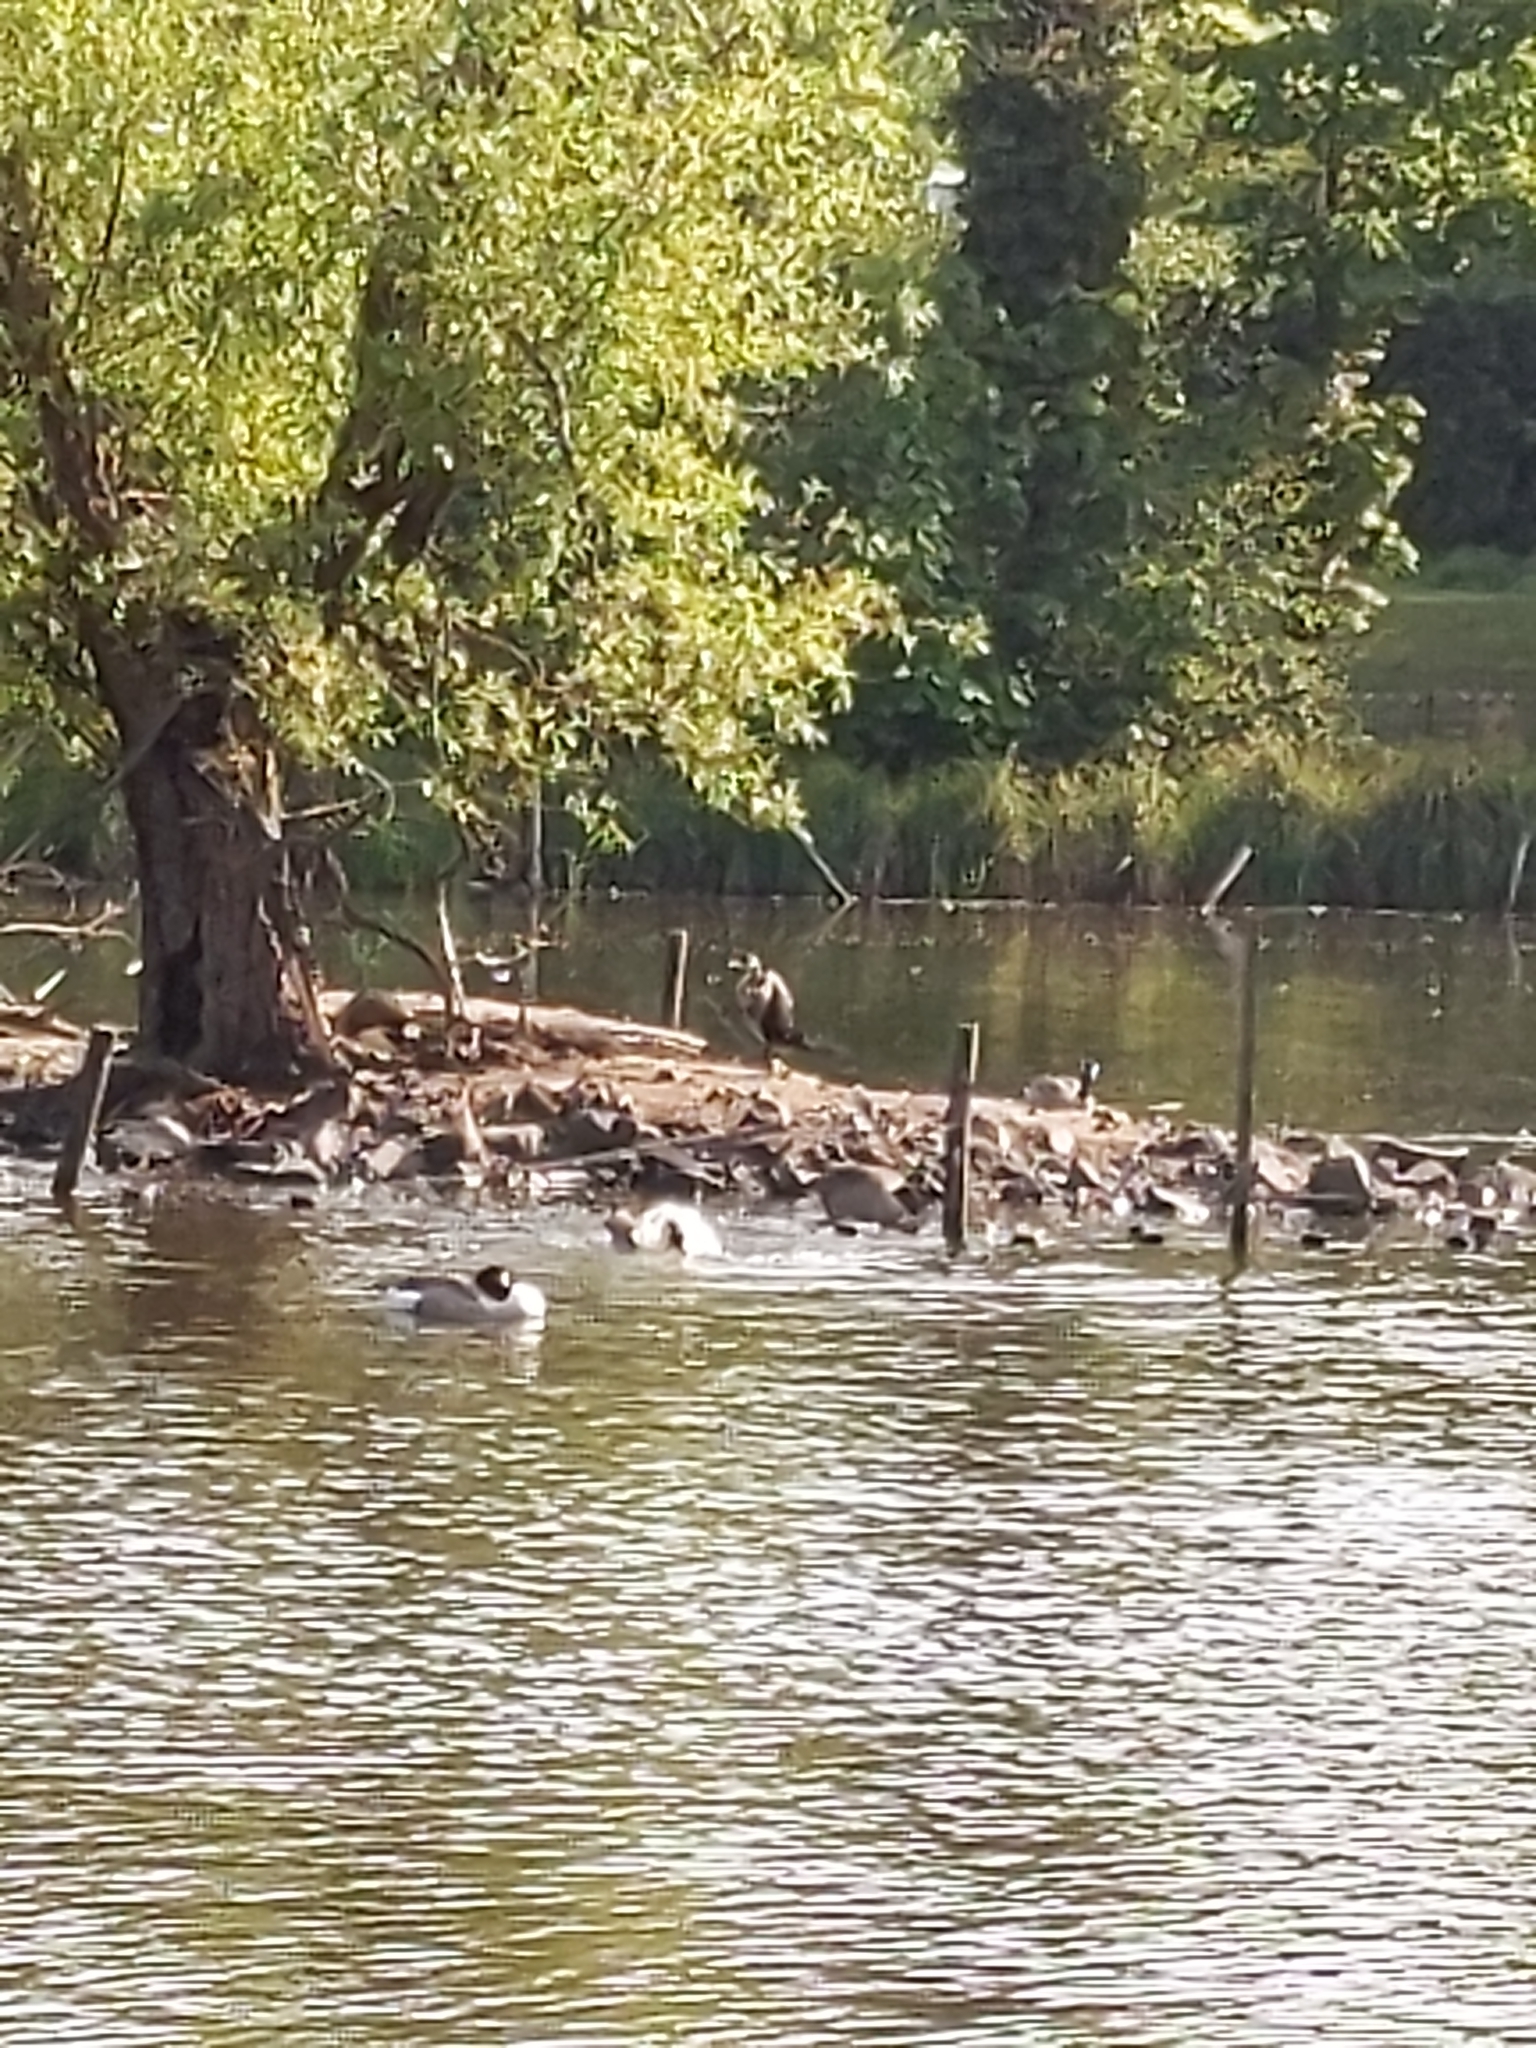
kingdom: Animalia
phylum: Chordata
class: Aves
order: Suliformes
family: Phalacrocoracidae
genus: Phalacrocorax
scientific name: Phalacrocorax carbo
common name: Great cormorant
